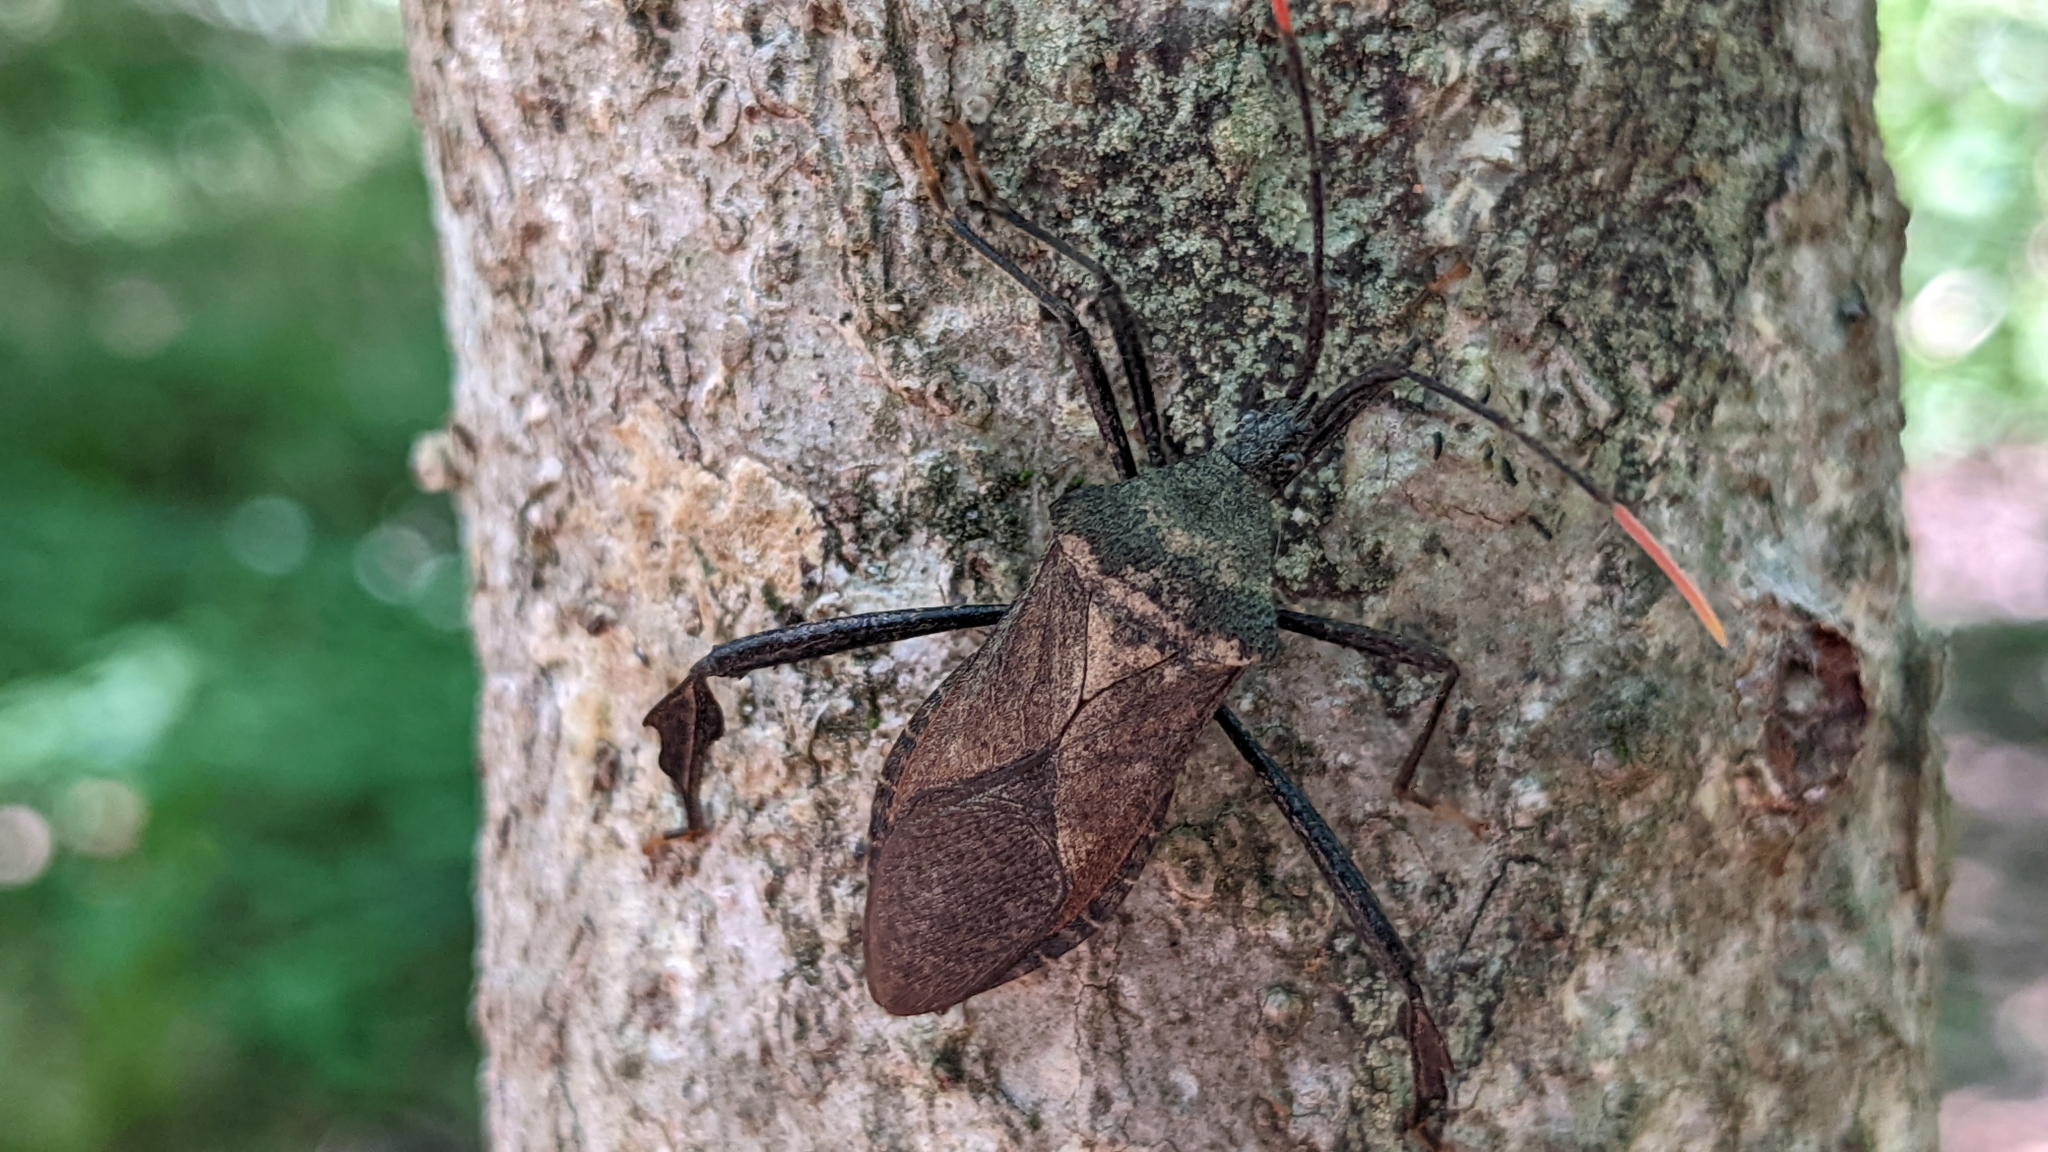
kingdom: Animalia
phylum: Arthropoda
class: Insecta
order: Hemiptera
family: Coreidae
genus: Acanthocephala
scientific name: Acanthocephala terminalis
